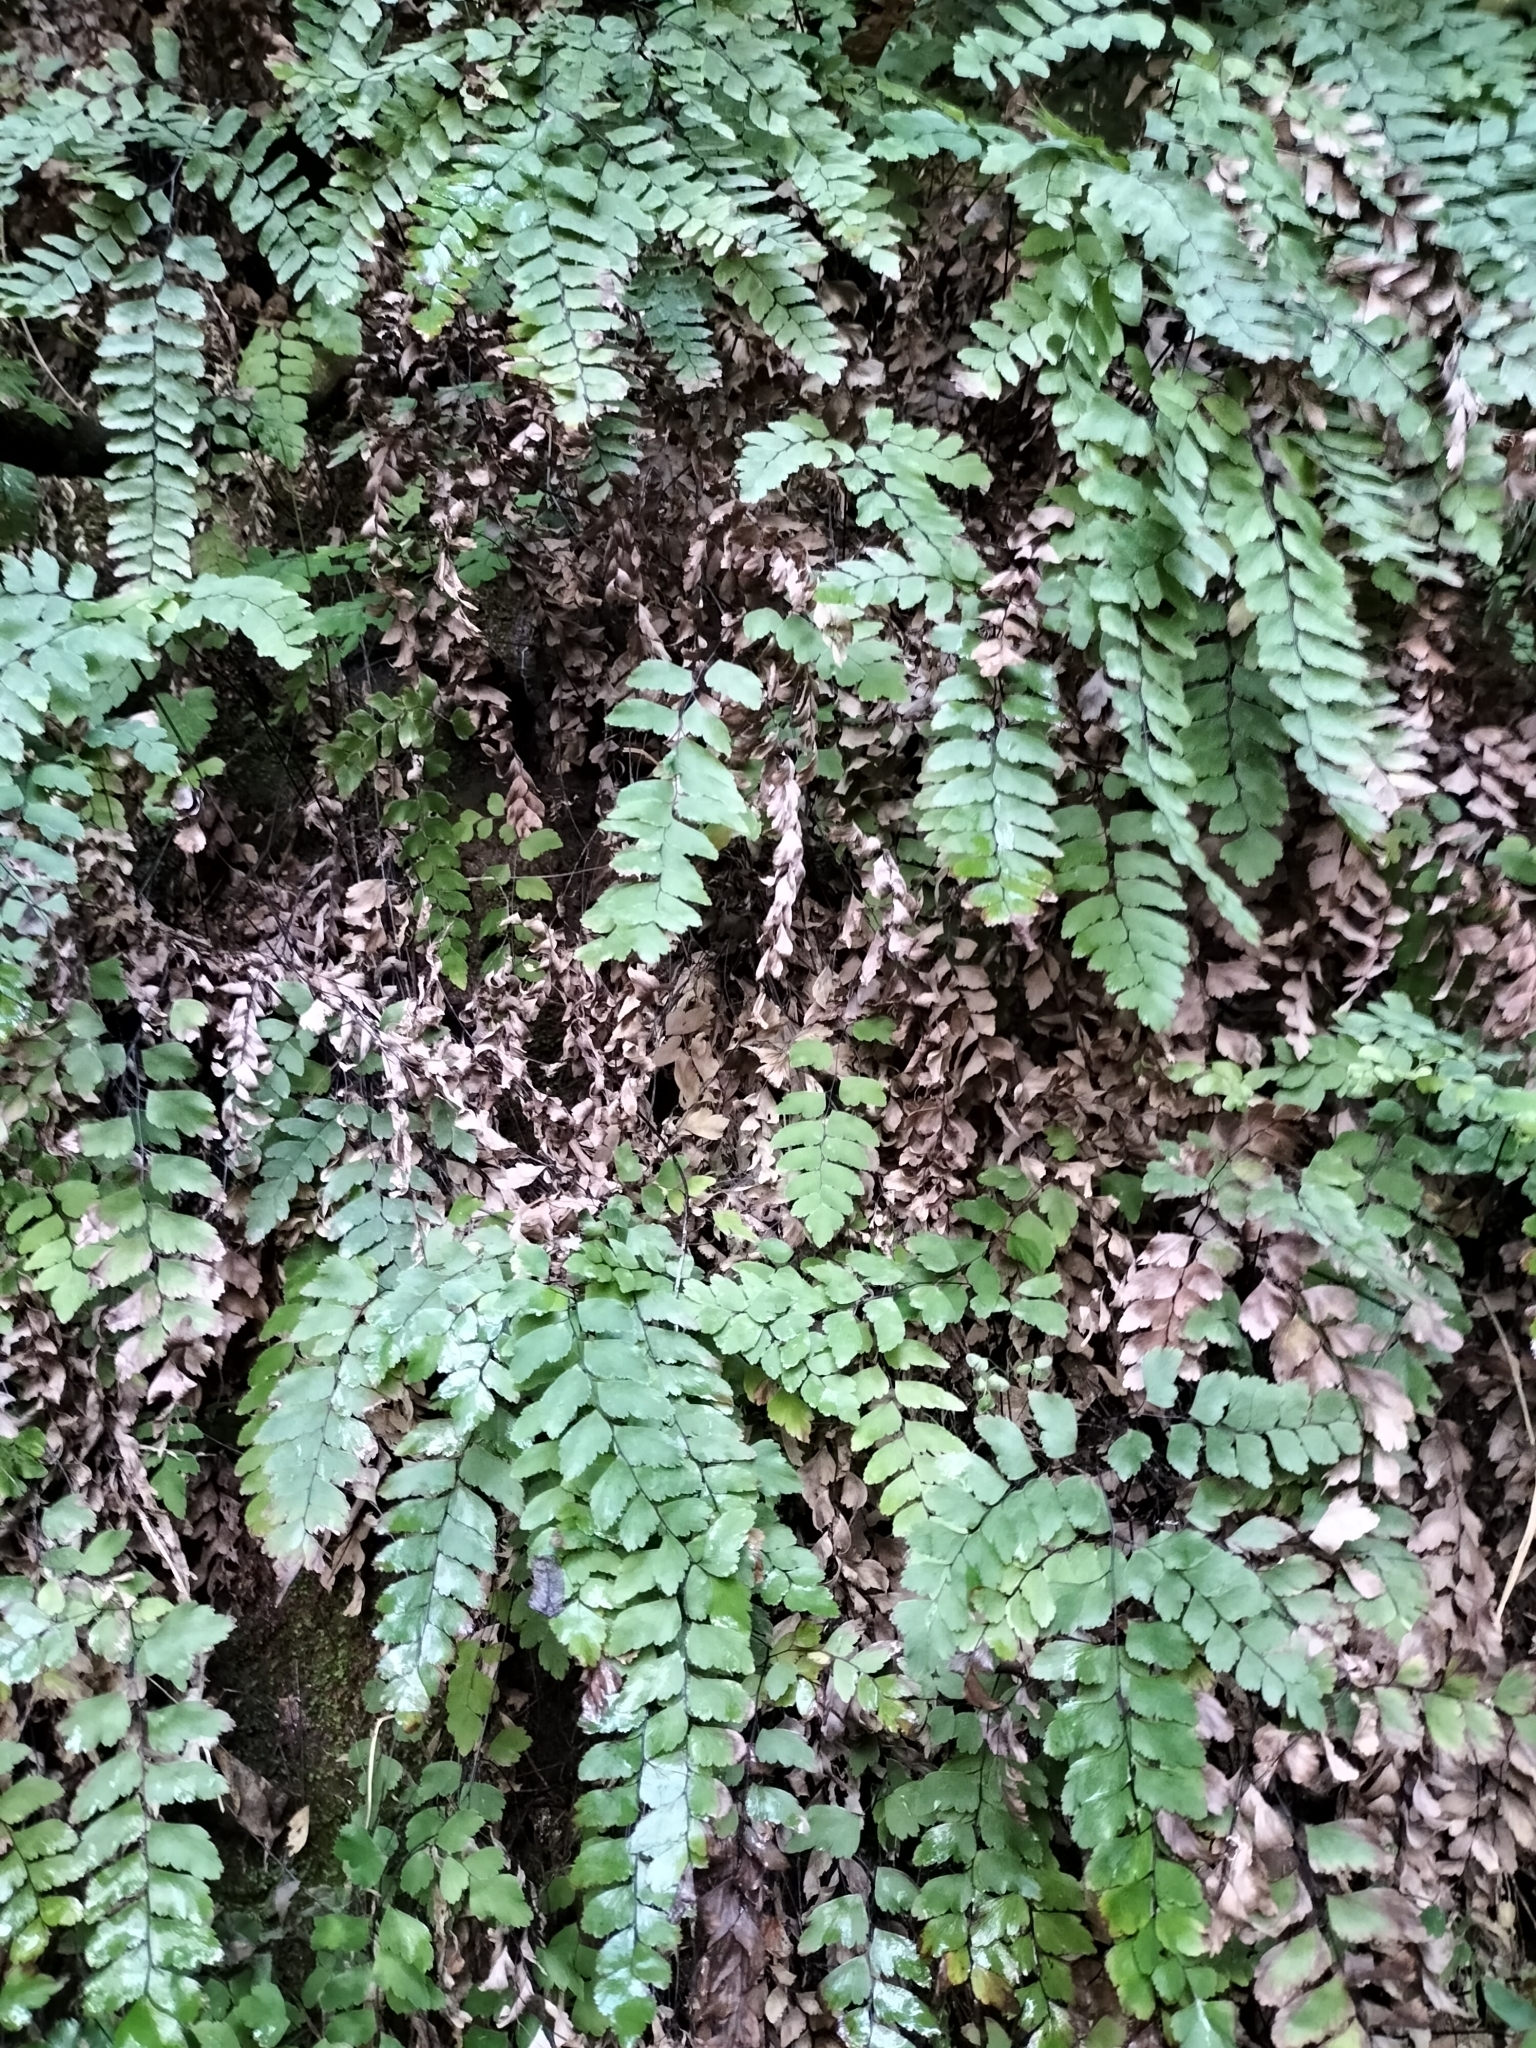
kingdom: Plantae
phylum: Tracheophyta
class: Polypodiopsida
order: Polypodiales
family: Pteridaceae
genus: Adiantum
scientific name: Adiantum cunninghamii
